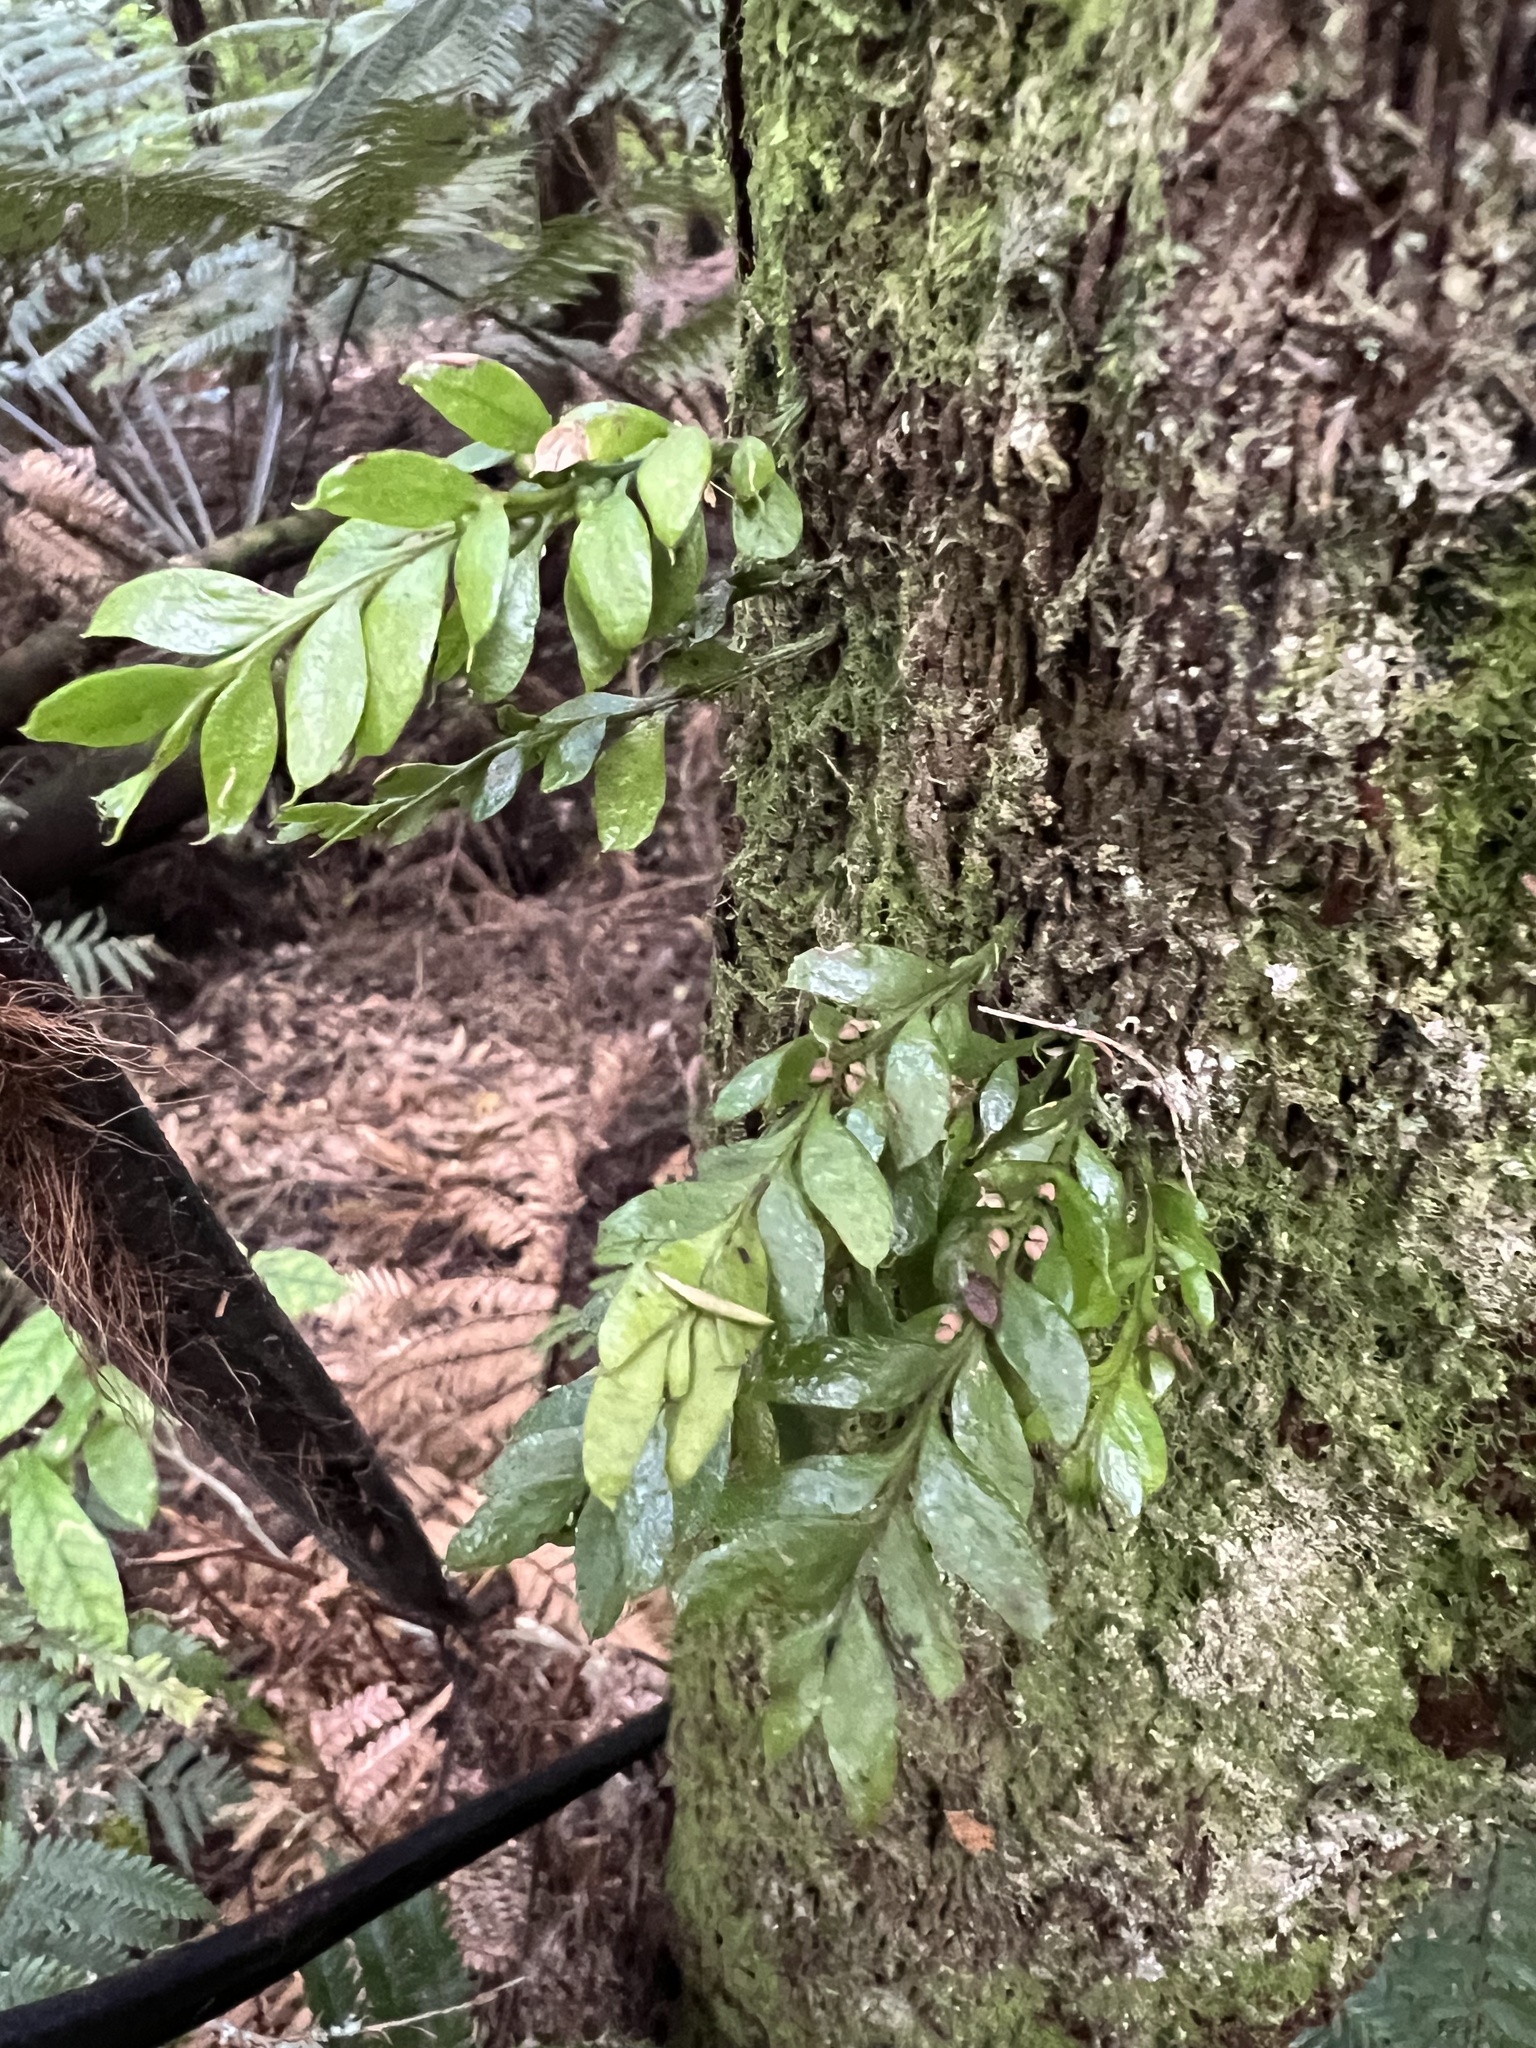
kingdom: Plantae
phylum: Tracheophyta
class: Polypodiopsida
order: Psilotales
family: Psilotaceae
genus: Tmesipteris
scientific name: Tmesipteris lanceolata
